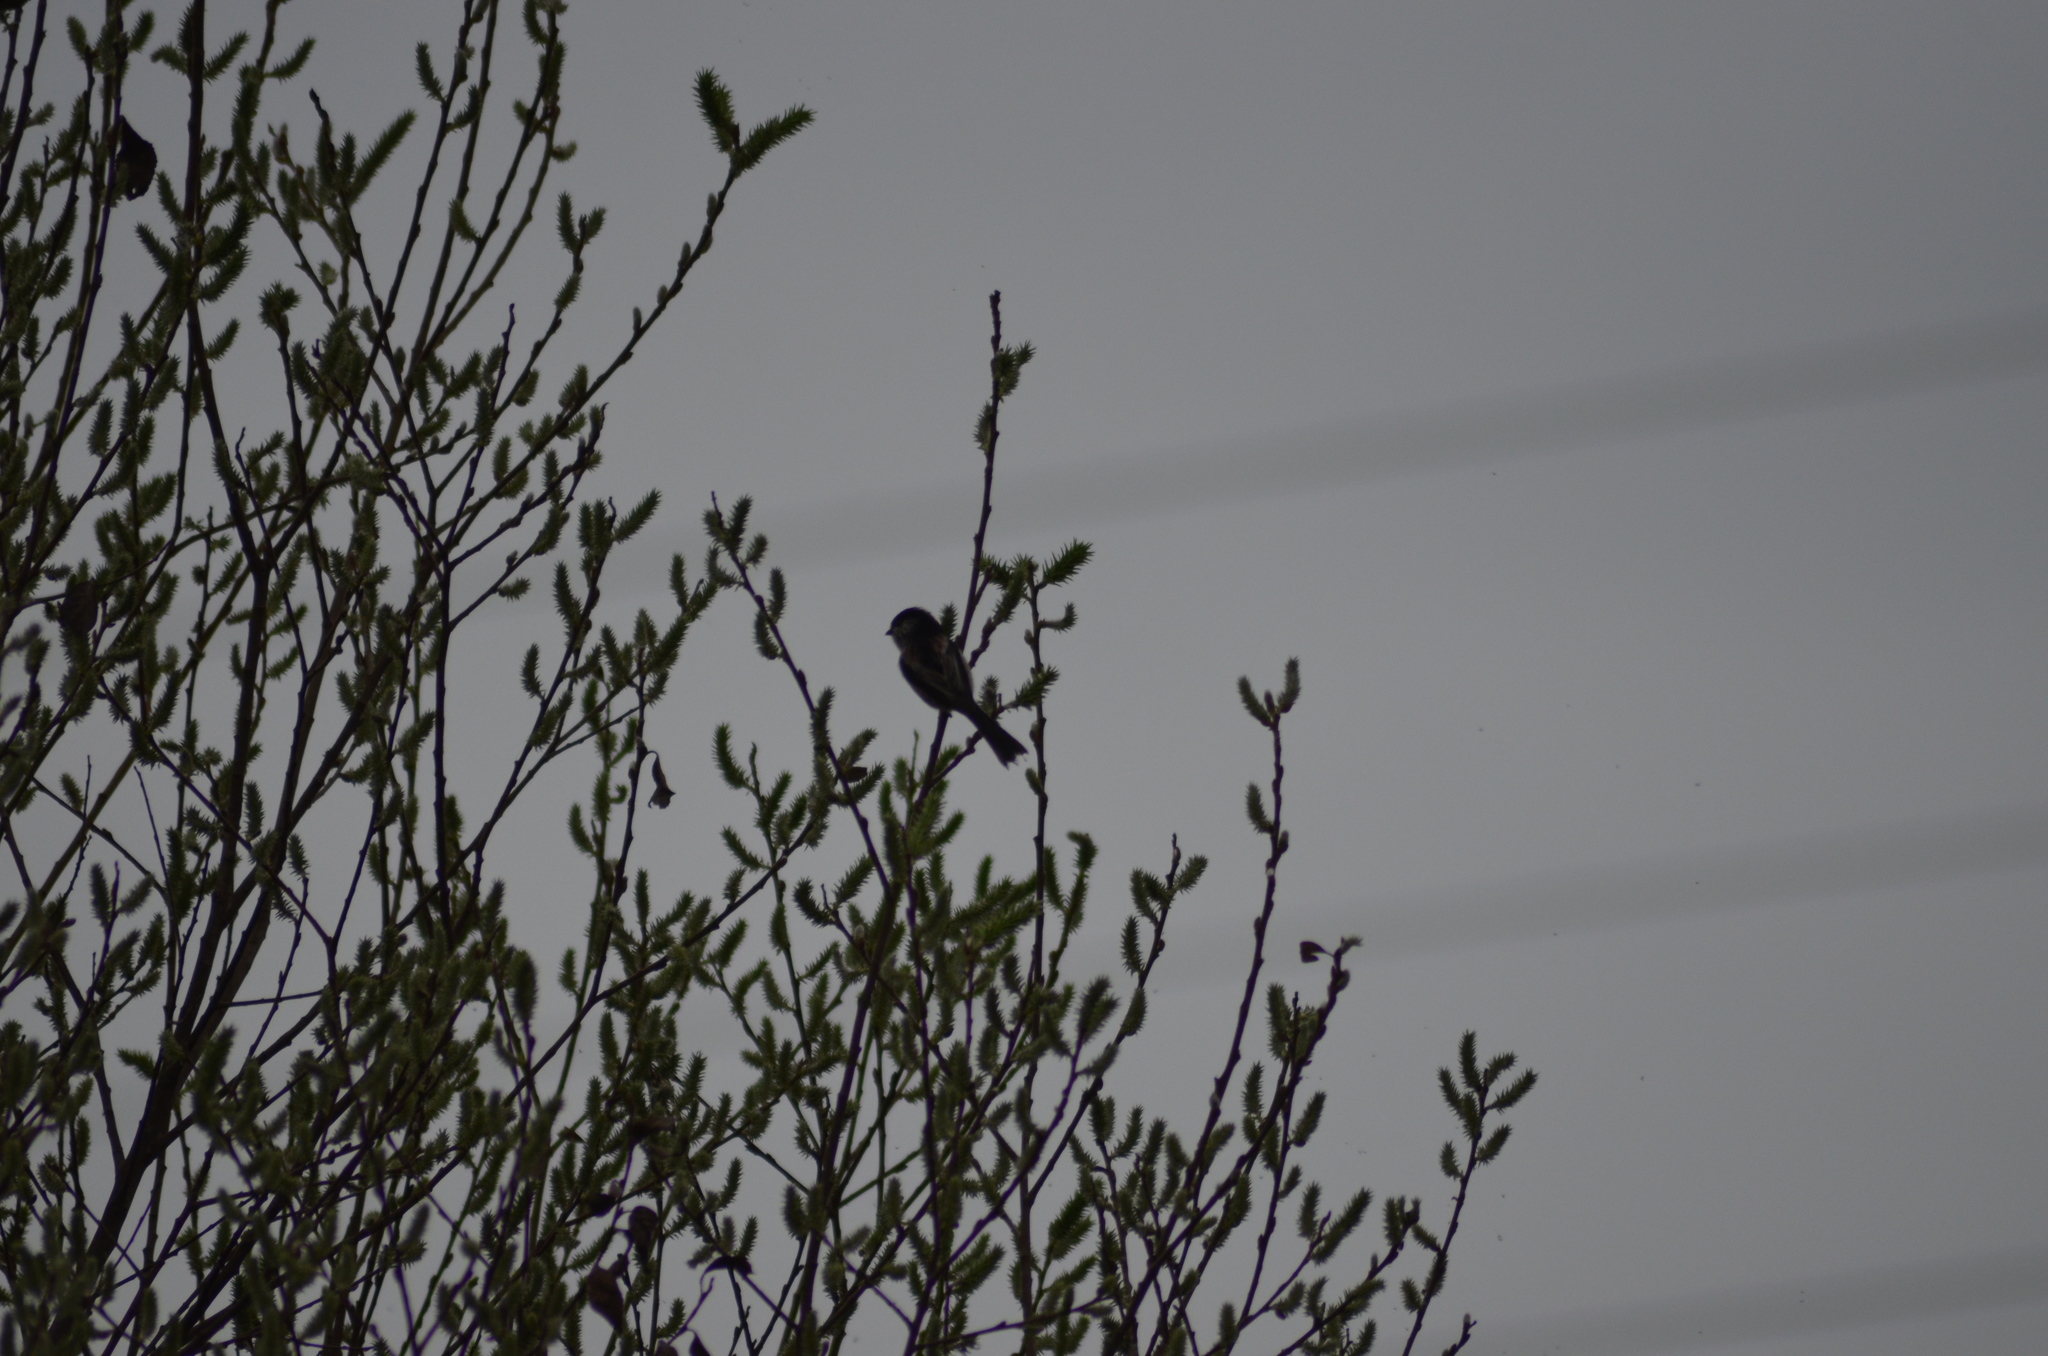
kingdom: Animalia
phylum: Chordata
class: Aves
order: Passeriformes
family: Aegithalidae
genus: Aegithalos
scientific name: Aegithalos caudatus
